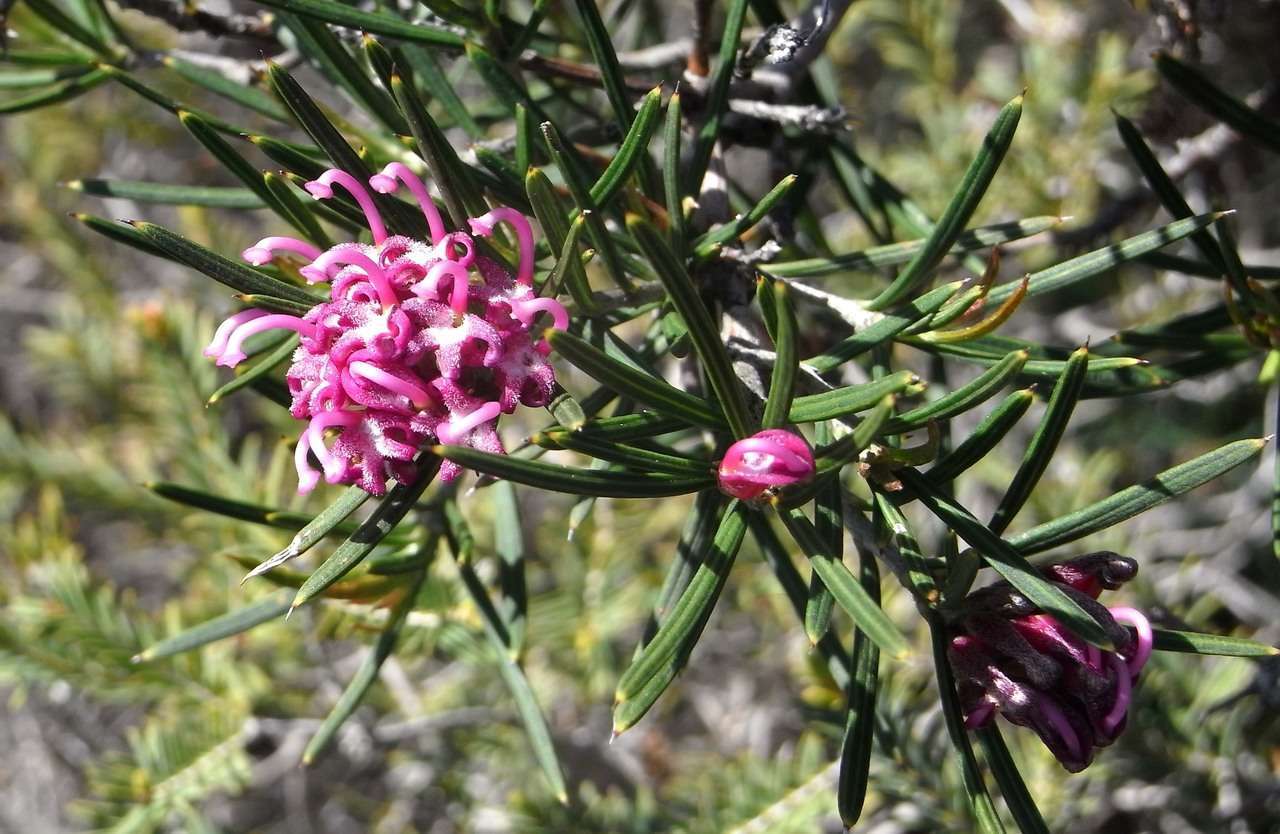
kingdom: Plantae
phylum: Tracheophyta
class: Magnoliopsida
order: Proteales
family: Proteaceae
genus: Grevillea
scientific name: Grevillea confertifolia
